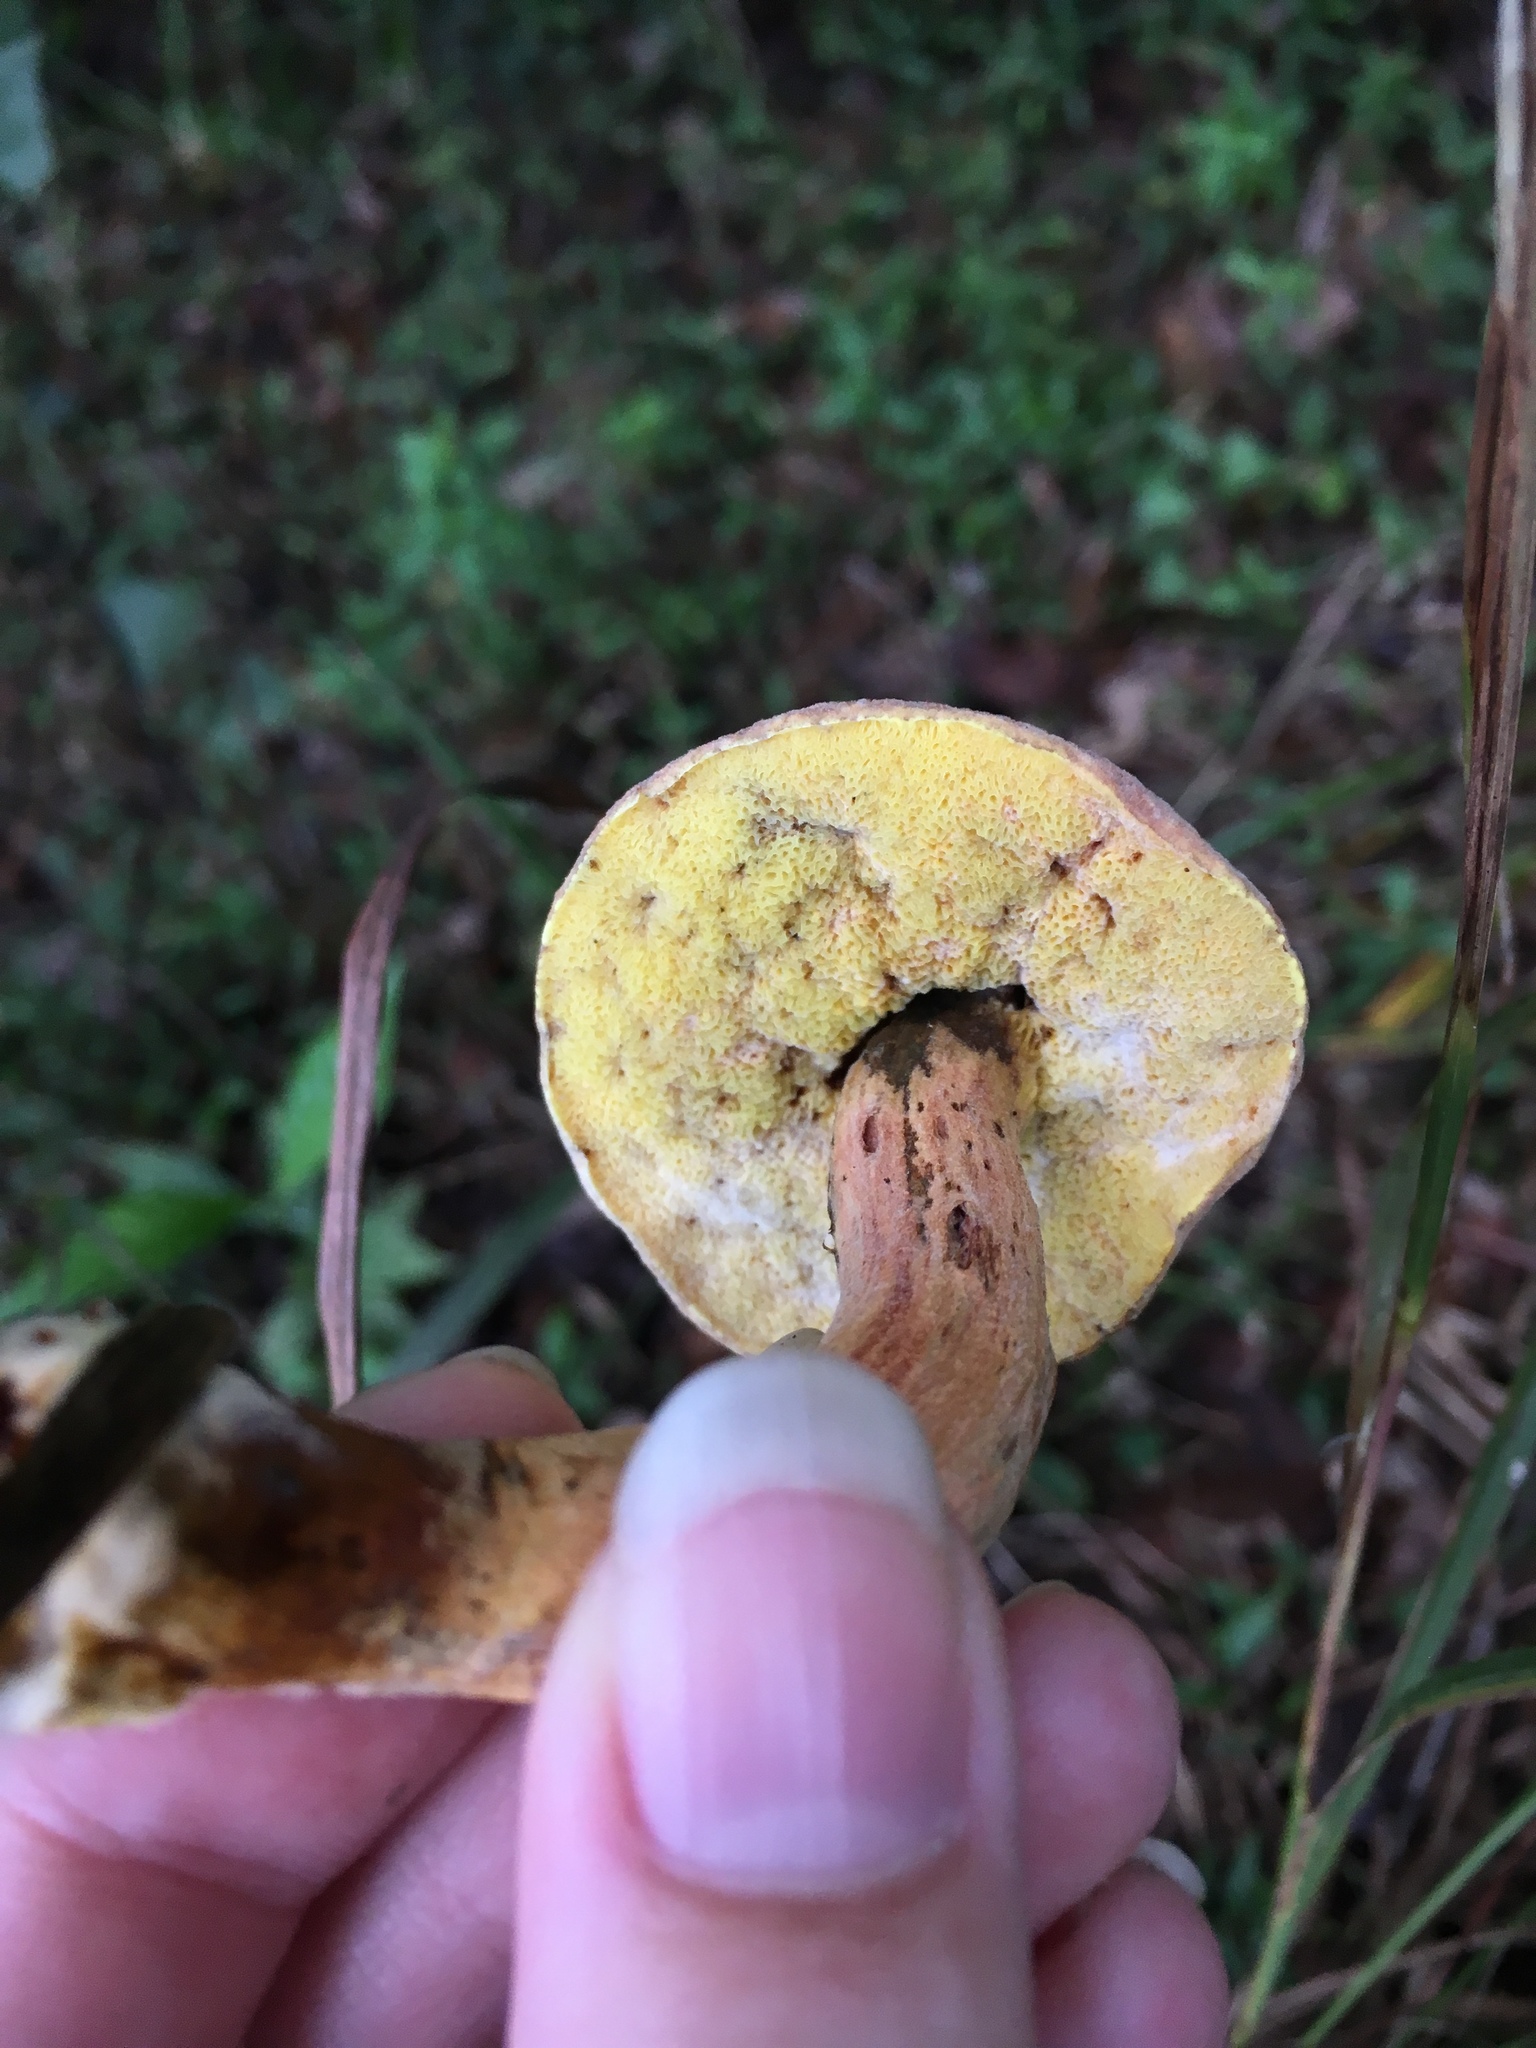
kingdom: Fungi
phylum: Basidiomycota
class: Agaricomycetes
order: Boletales
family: Boletaceae
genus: Hortiboletus
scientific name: Hortiboletus rubellus
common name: Ruby bolete
